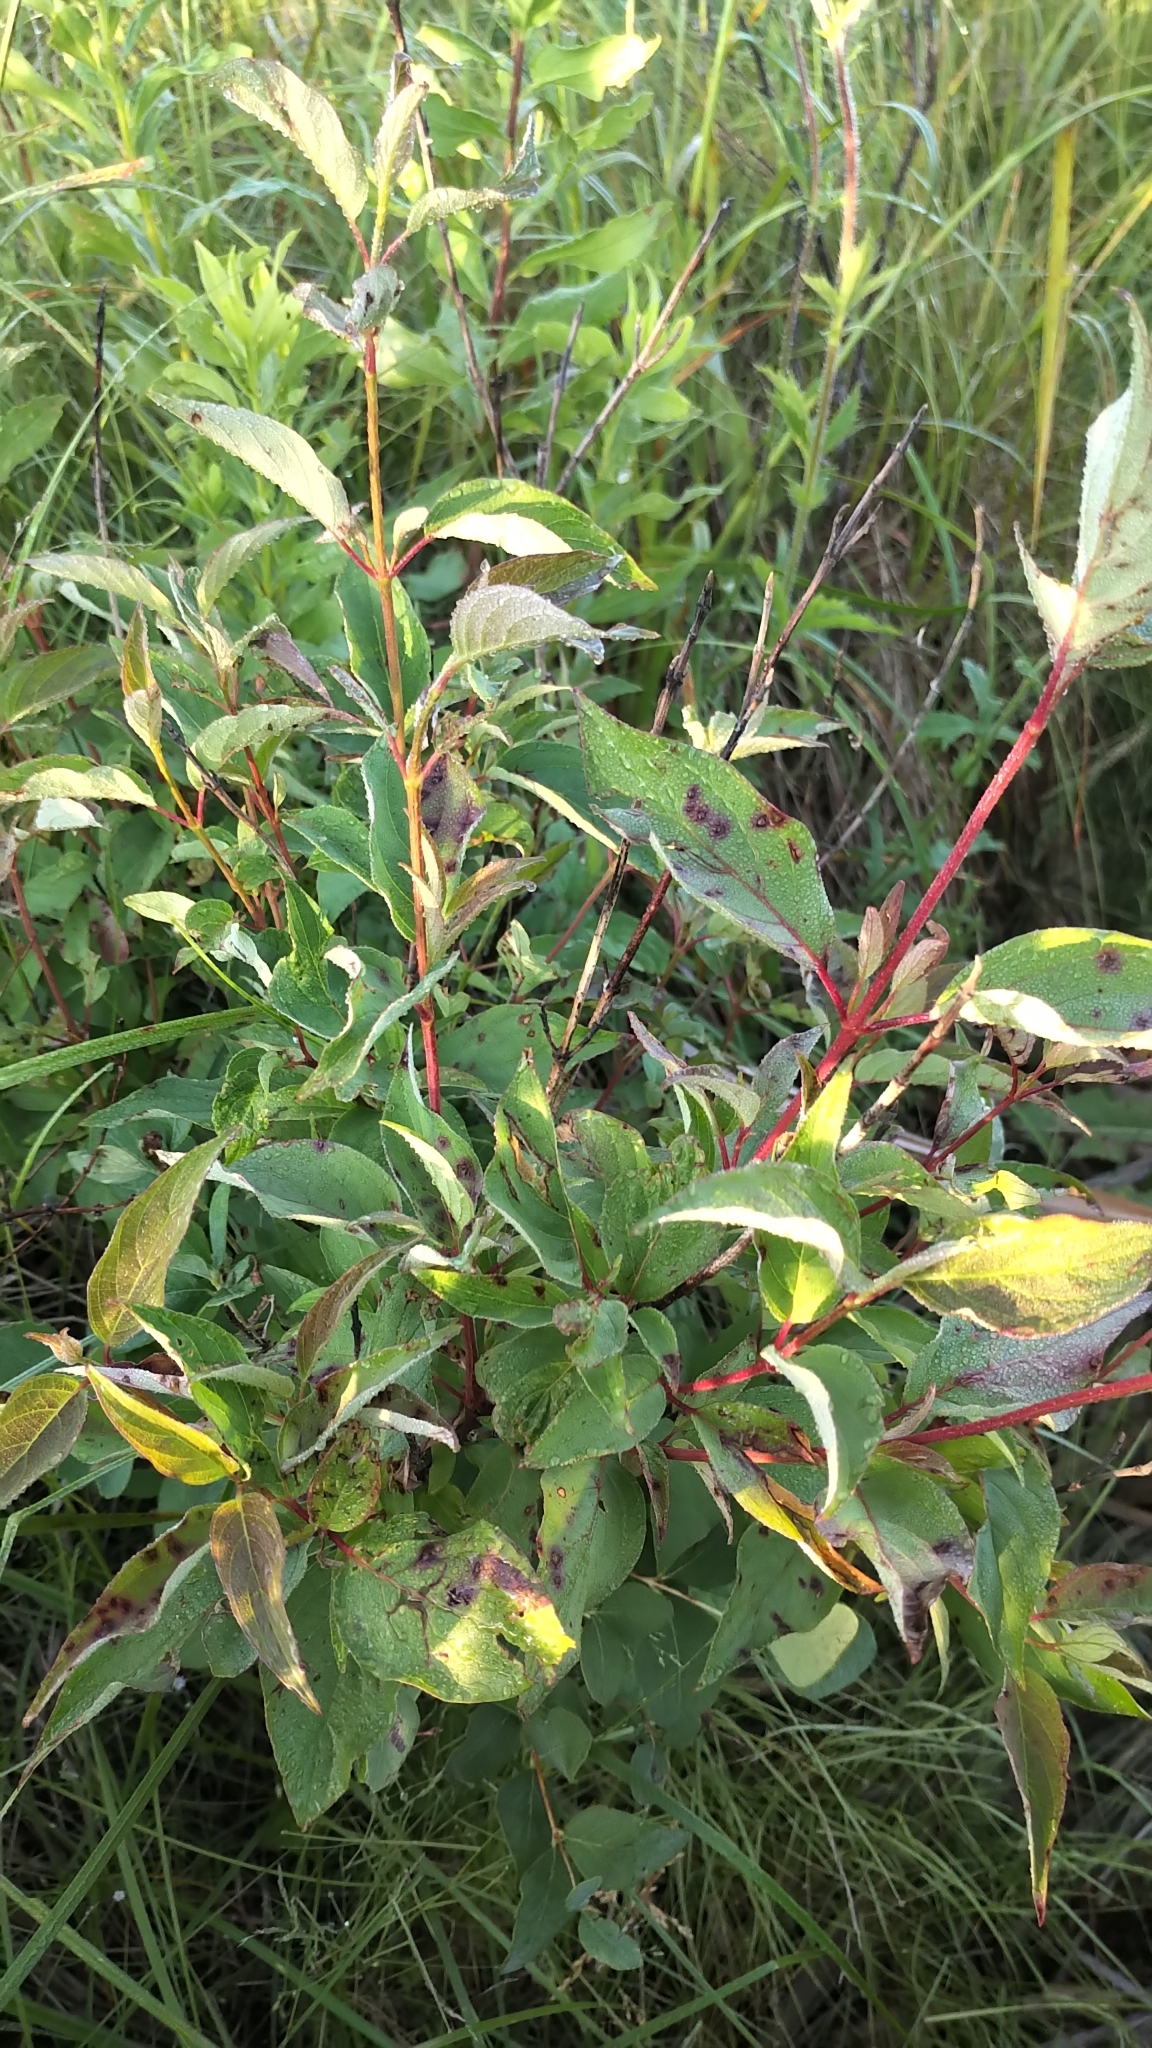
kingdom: Plantae
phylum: Tracheophyta
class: Magnoliopsida
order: Cornales
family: Cornaceae
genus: Cornus
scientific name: Cornus sericea
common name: Red-osier dogwood
